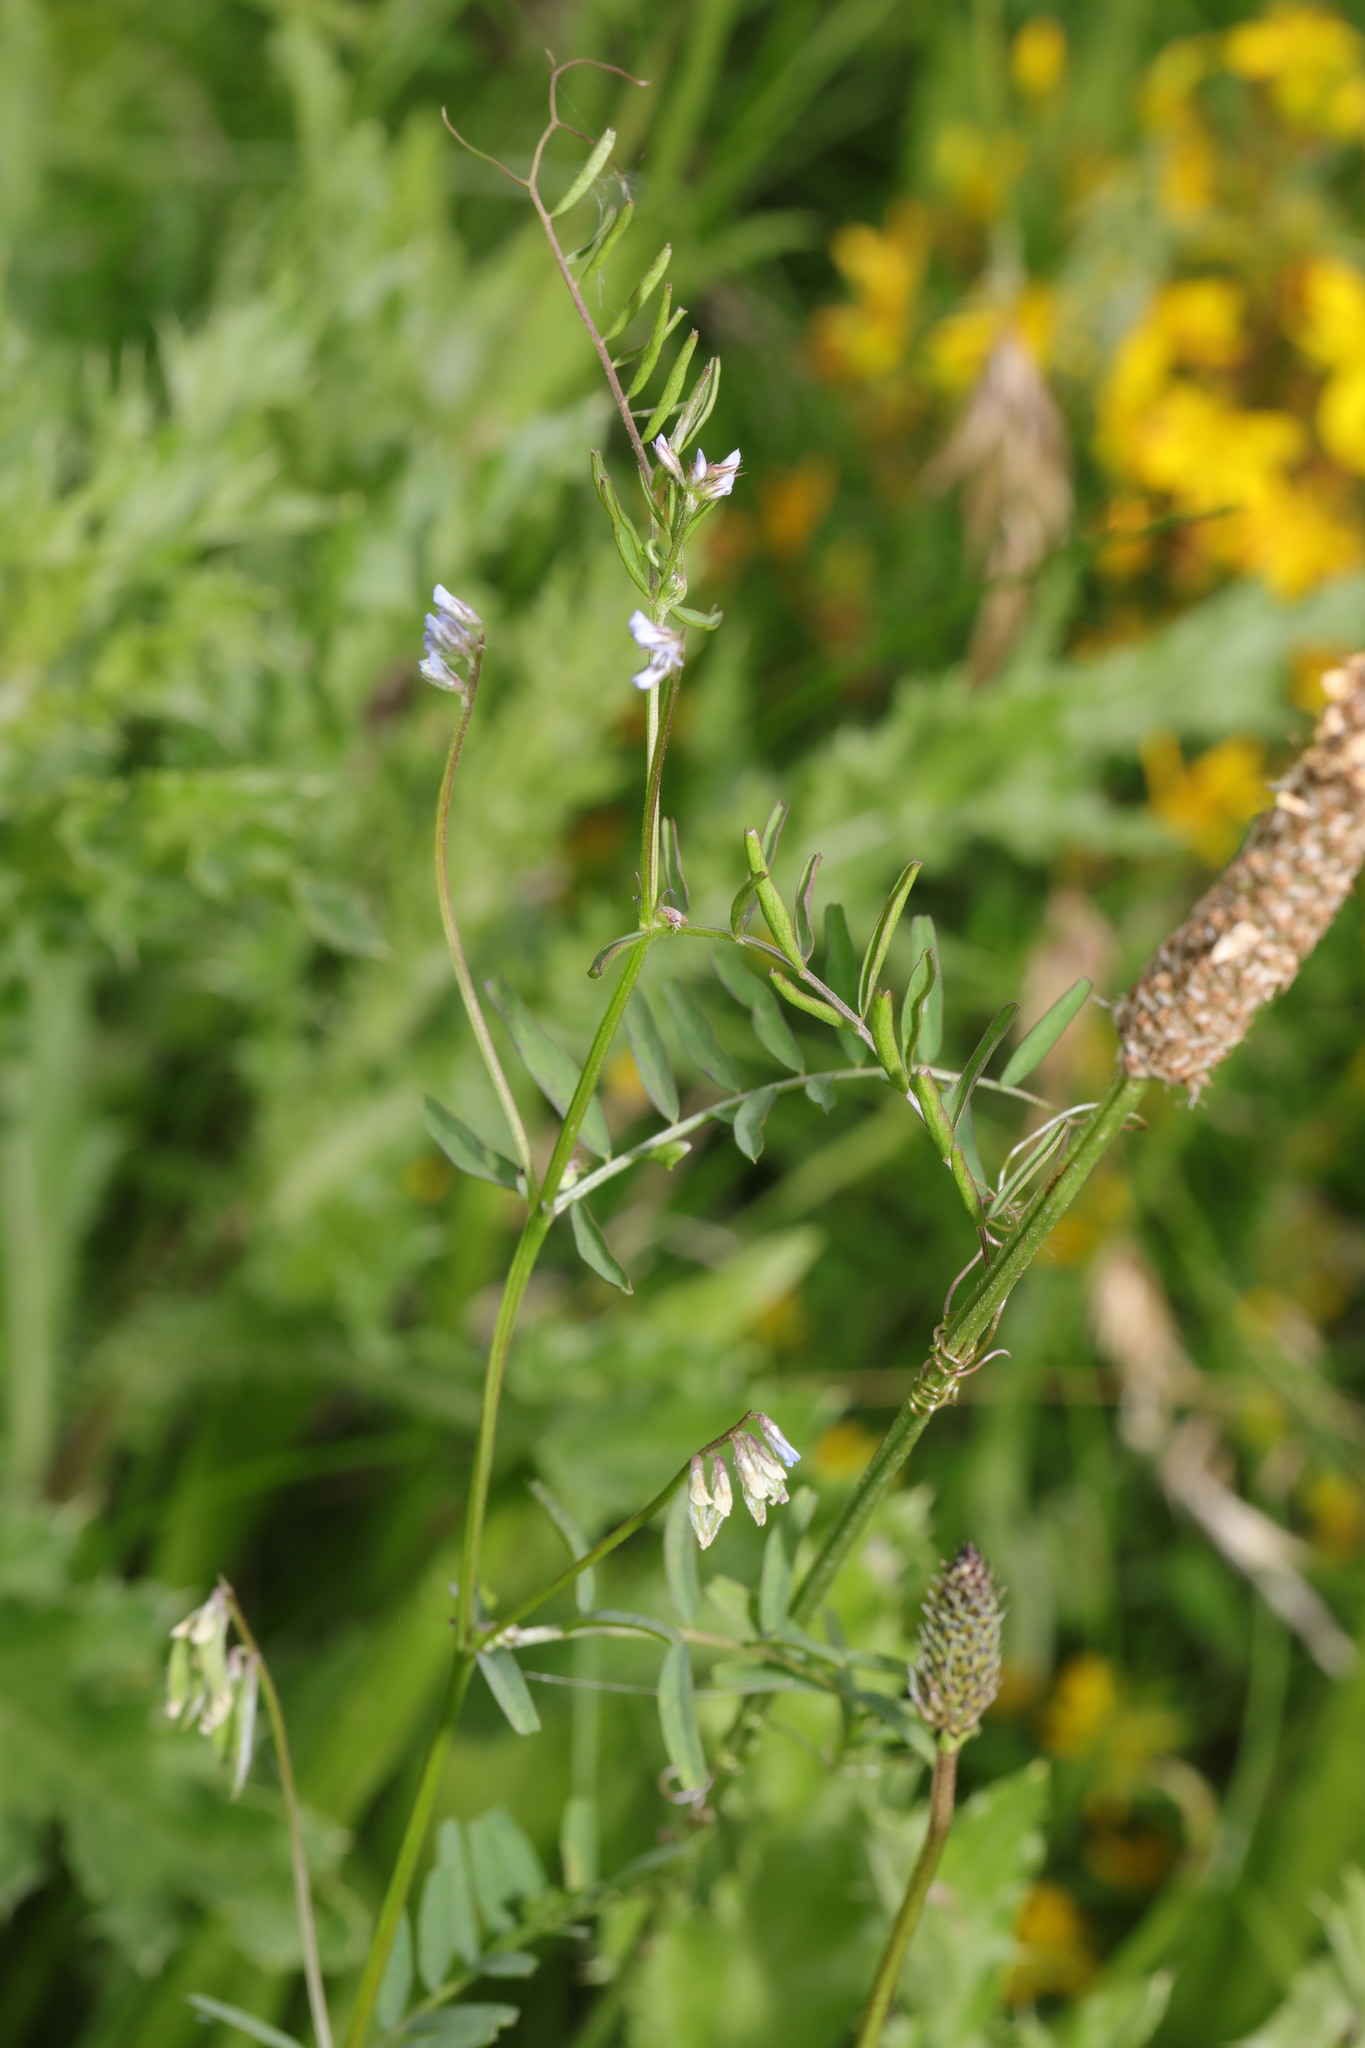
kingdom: Plantae
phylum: Tracheophyta
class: Magnoliopsida
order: Fabales
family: Fabaceae
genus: Vicia
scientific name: Vicia hirsuta
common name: Tiny vetch
